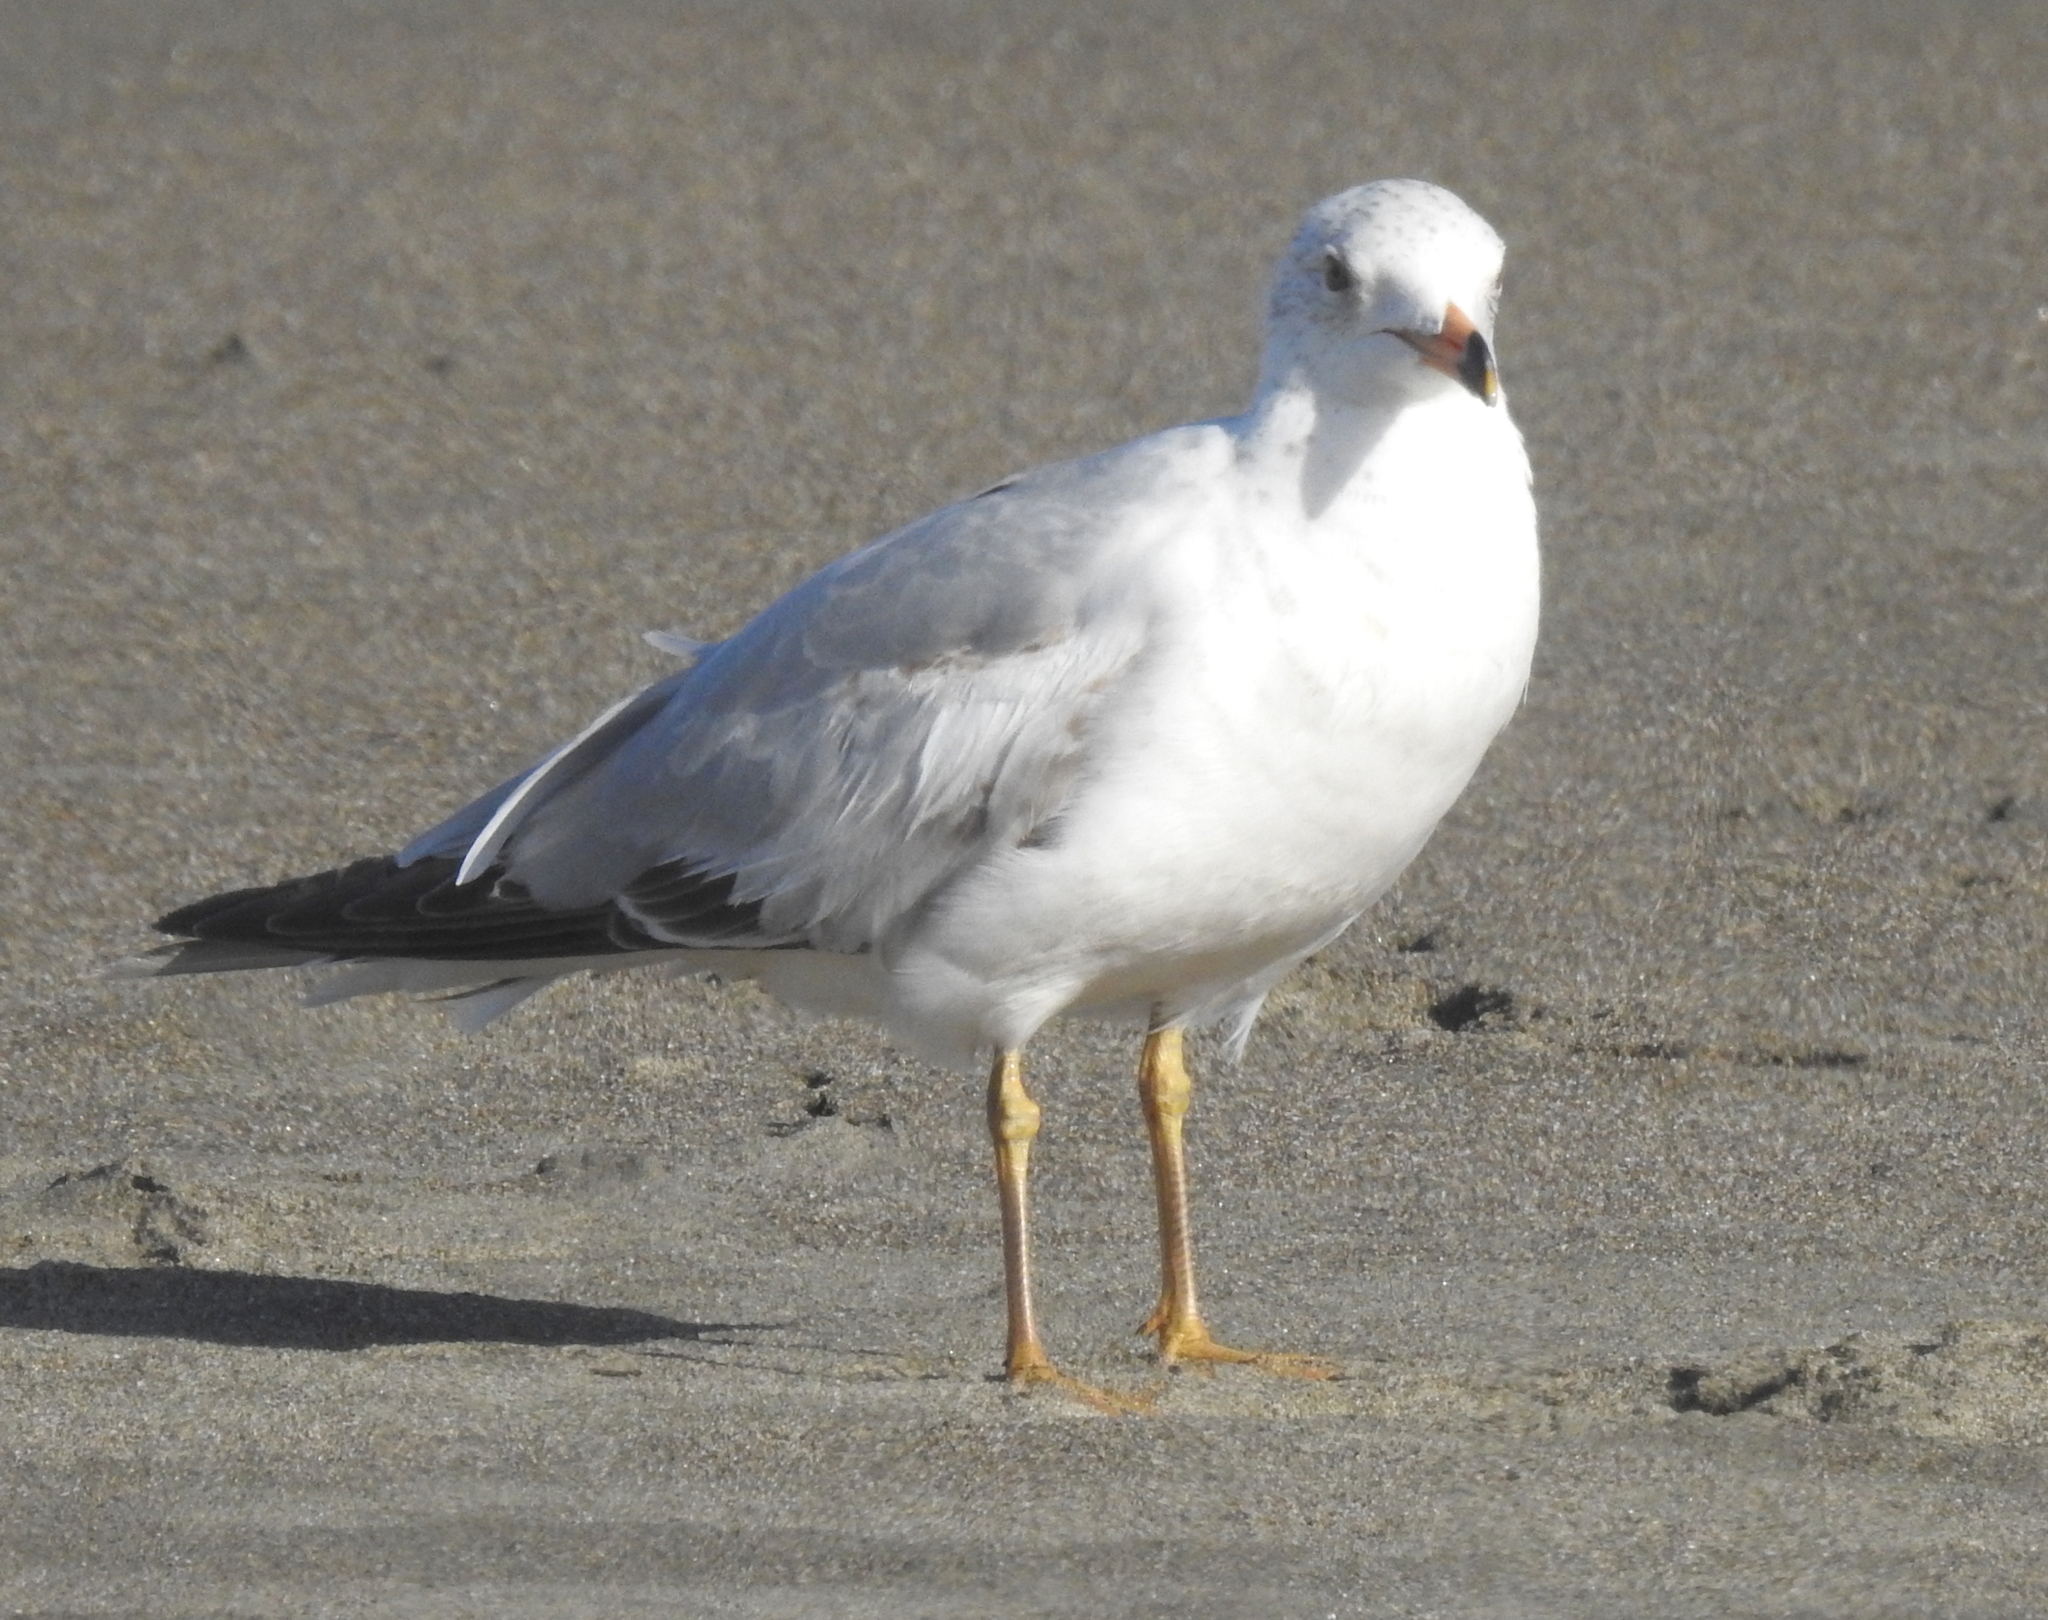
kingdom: Animalia
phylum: Chordata
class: Aves
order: Charadriiformes
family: Laridae
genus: Larus
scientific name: Larus delawarensis
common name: Ring-billed gull
